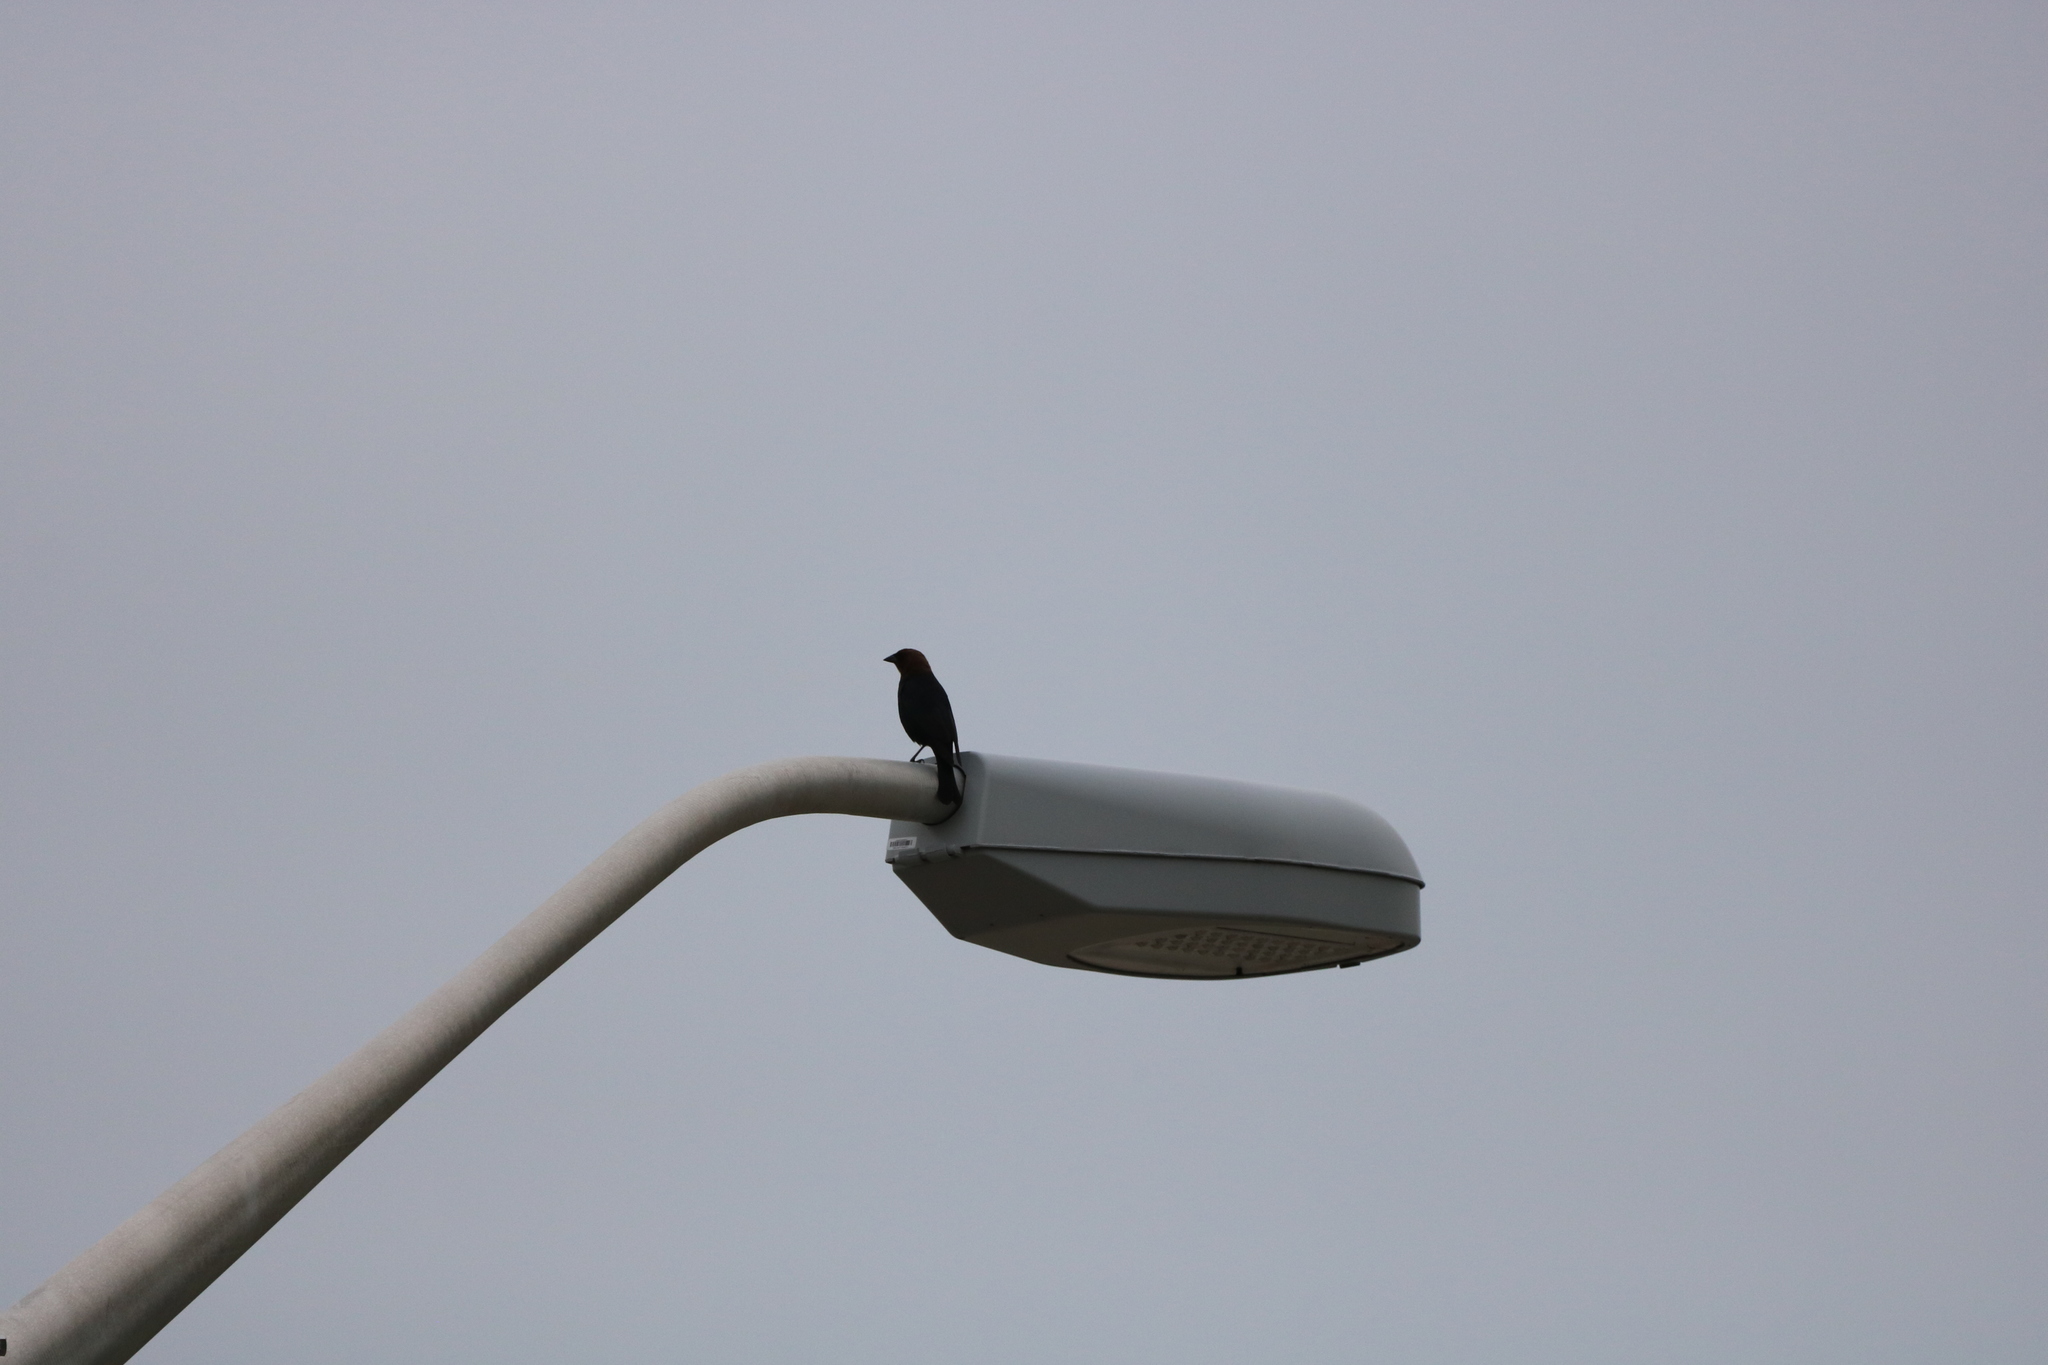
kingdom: Animalia
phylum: Chordata
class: Aves
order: Passeriformes
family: Icteridae
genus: Molothrus
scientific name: Molothrus ater
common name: Brown-headed cowbird
